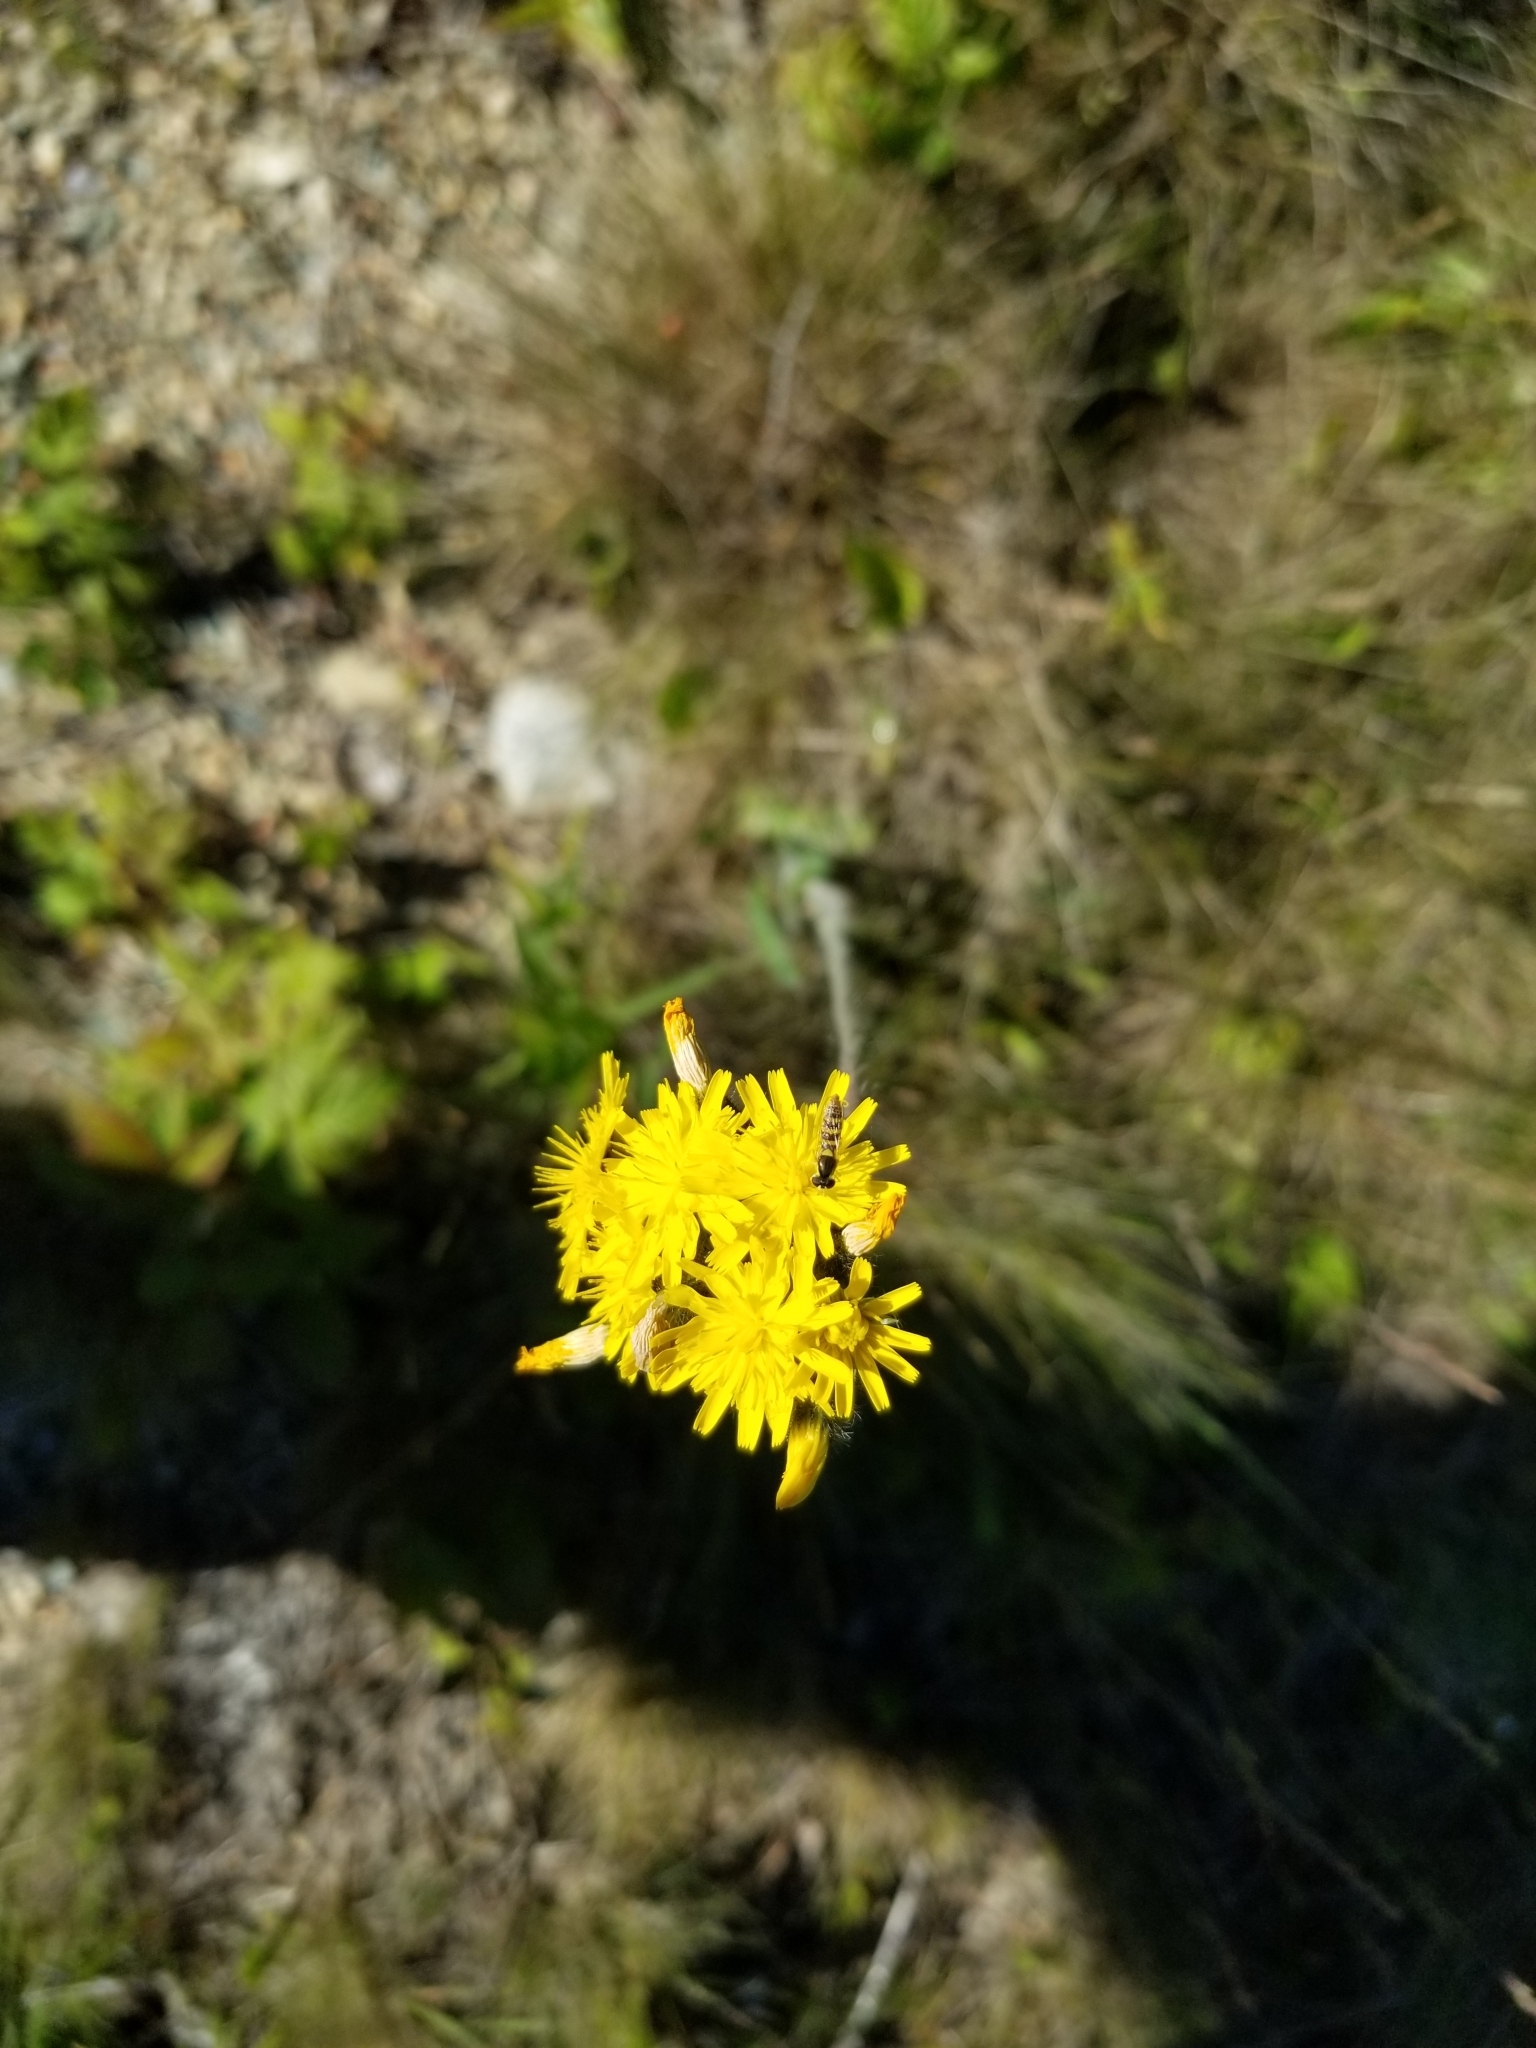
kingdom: Animalia
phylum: Arthropoda
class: Insecta
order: Diptera
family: Syrphidae
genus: Sphaerophoria
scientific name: Sphaerophoria
